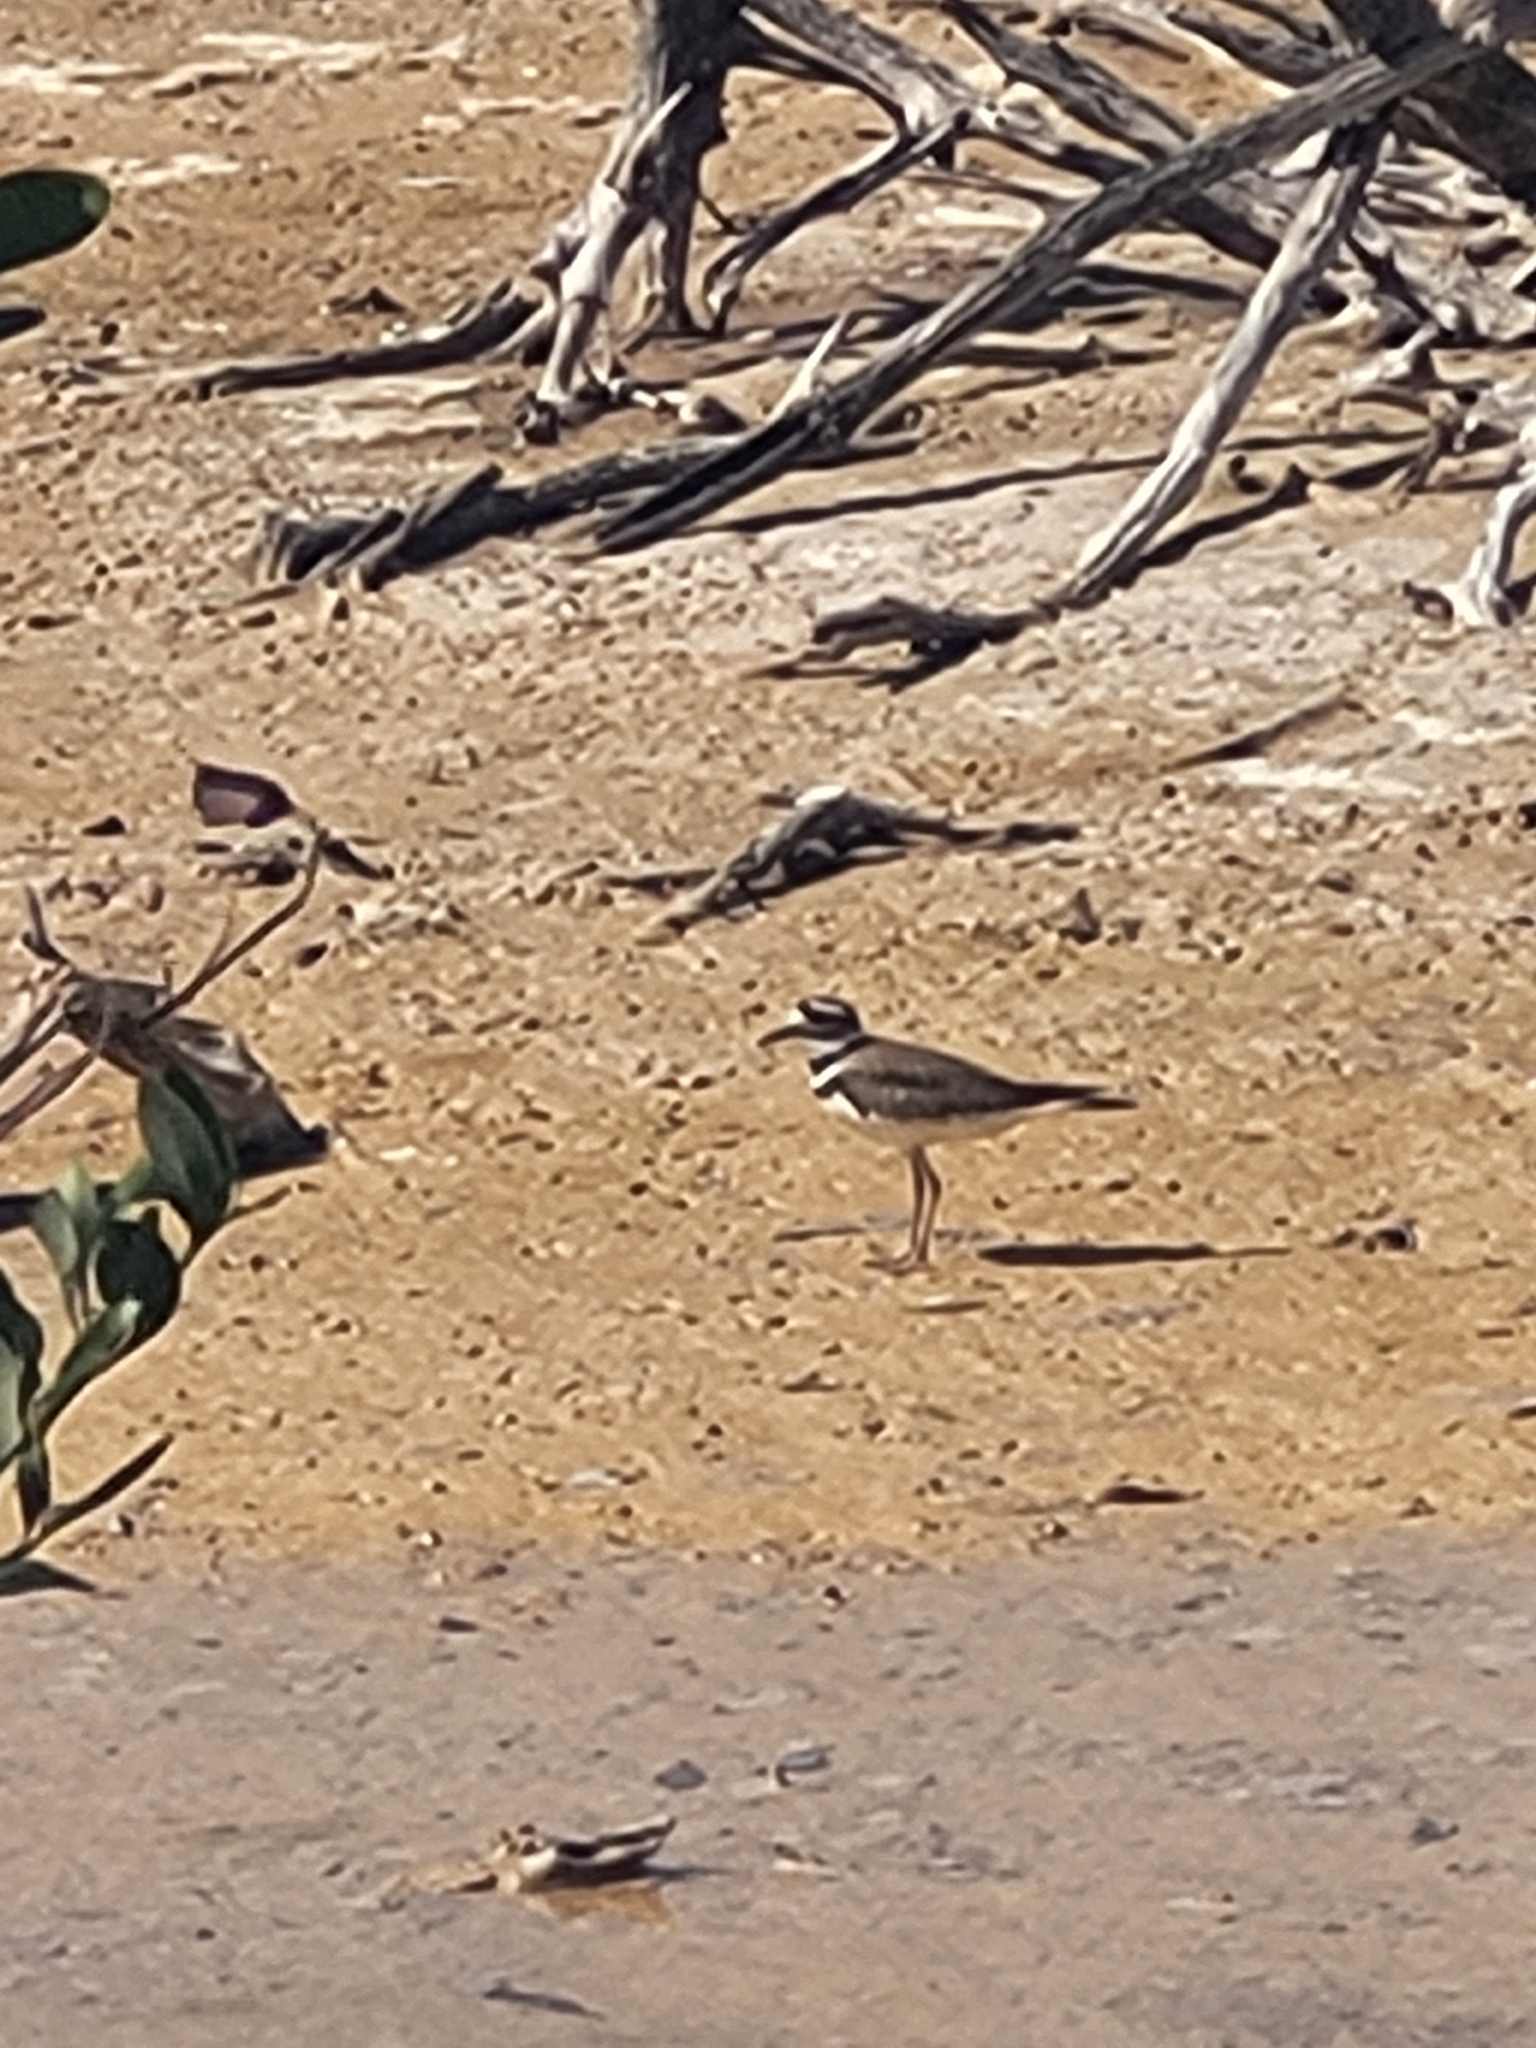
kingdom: Animalia
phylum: Chordata
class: Aves
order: Charadriiformes
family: Charadriidae
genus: Charadrius
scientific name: Charadrius vociferus
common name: Killdeer
